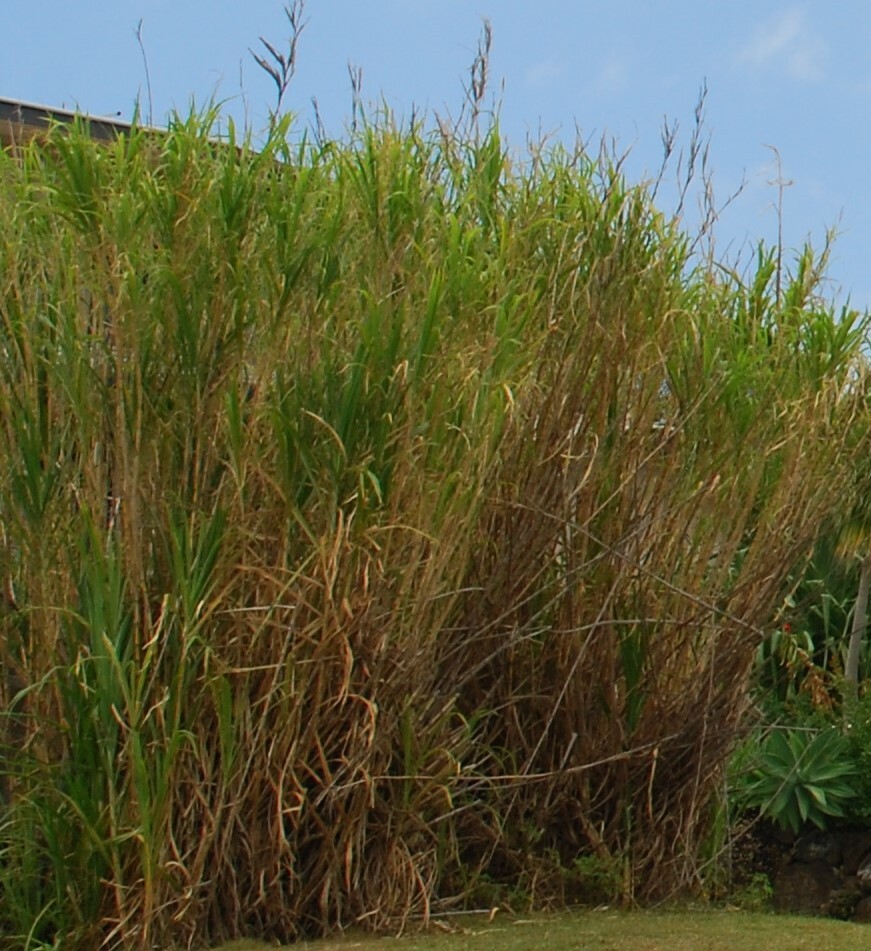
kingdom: Plantae
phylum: Tracheophyta
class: Liliopsida
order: Poales
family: Poaceae
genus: Phragmites
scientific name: Phragmites australis
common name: Common reed
